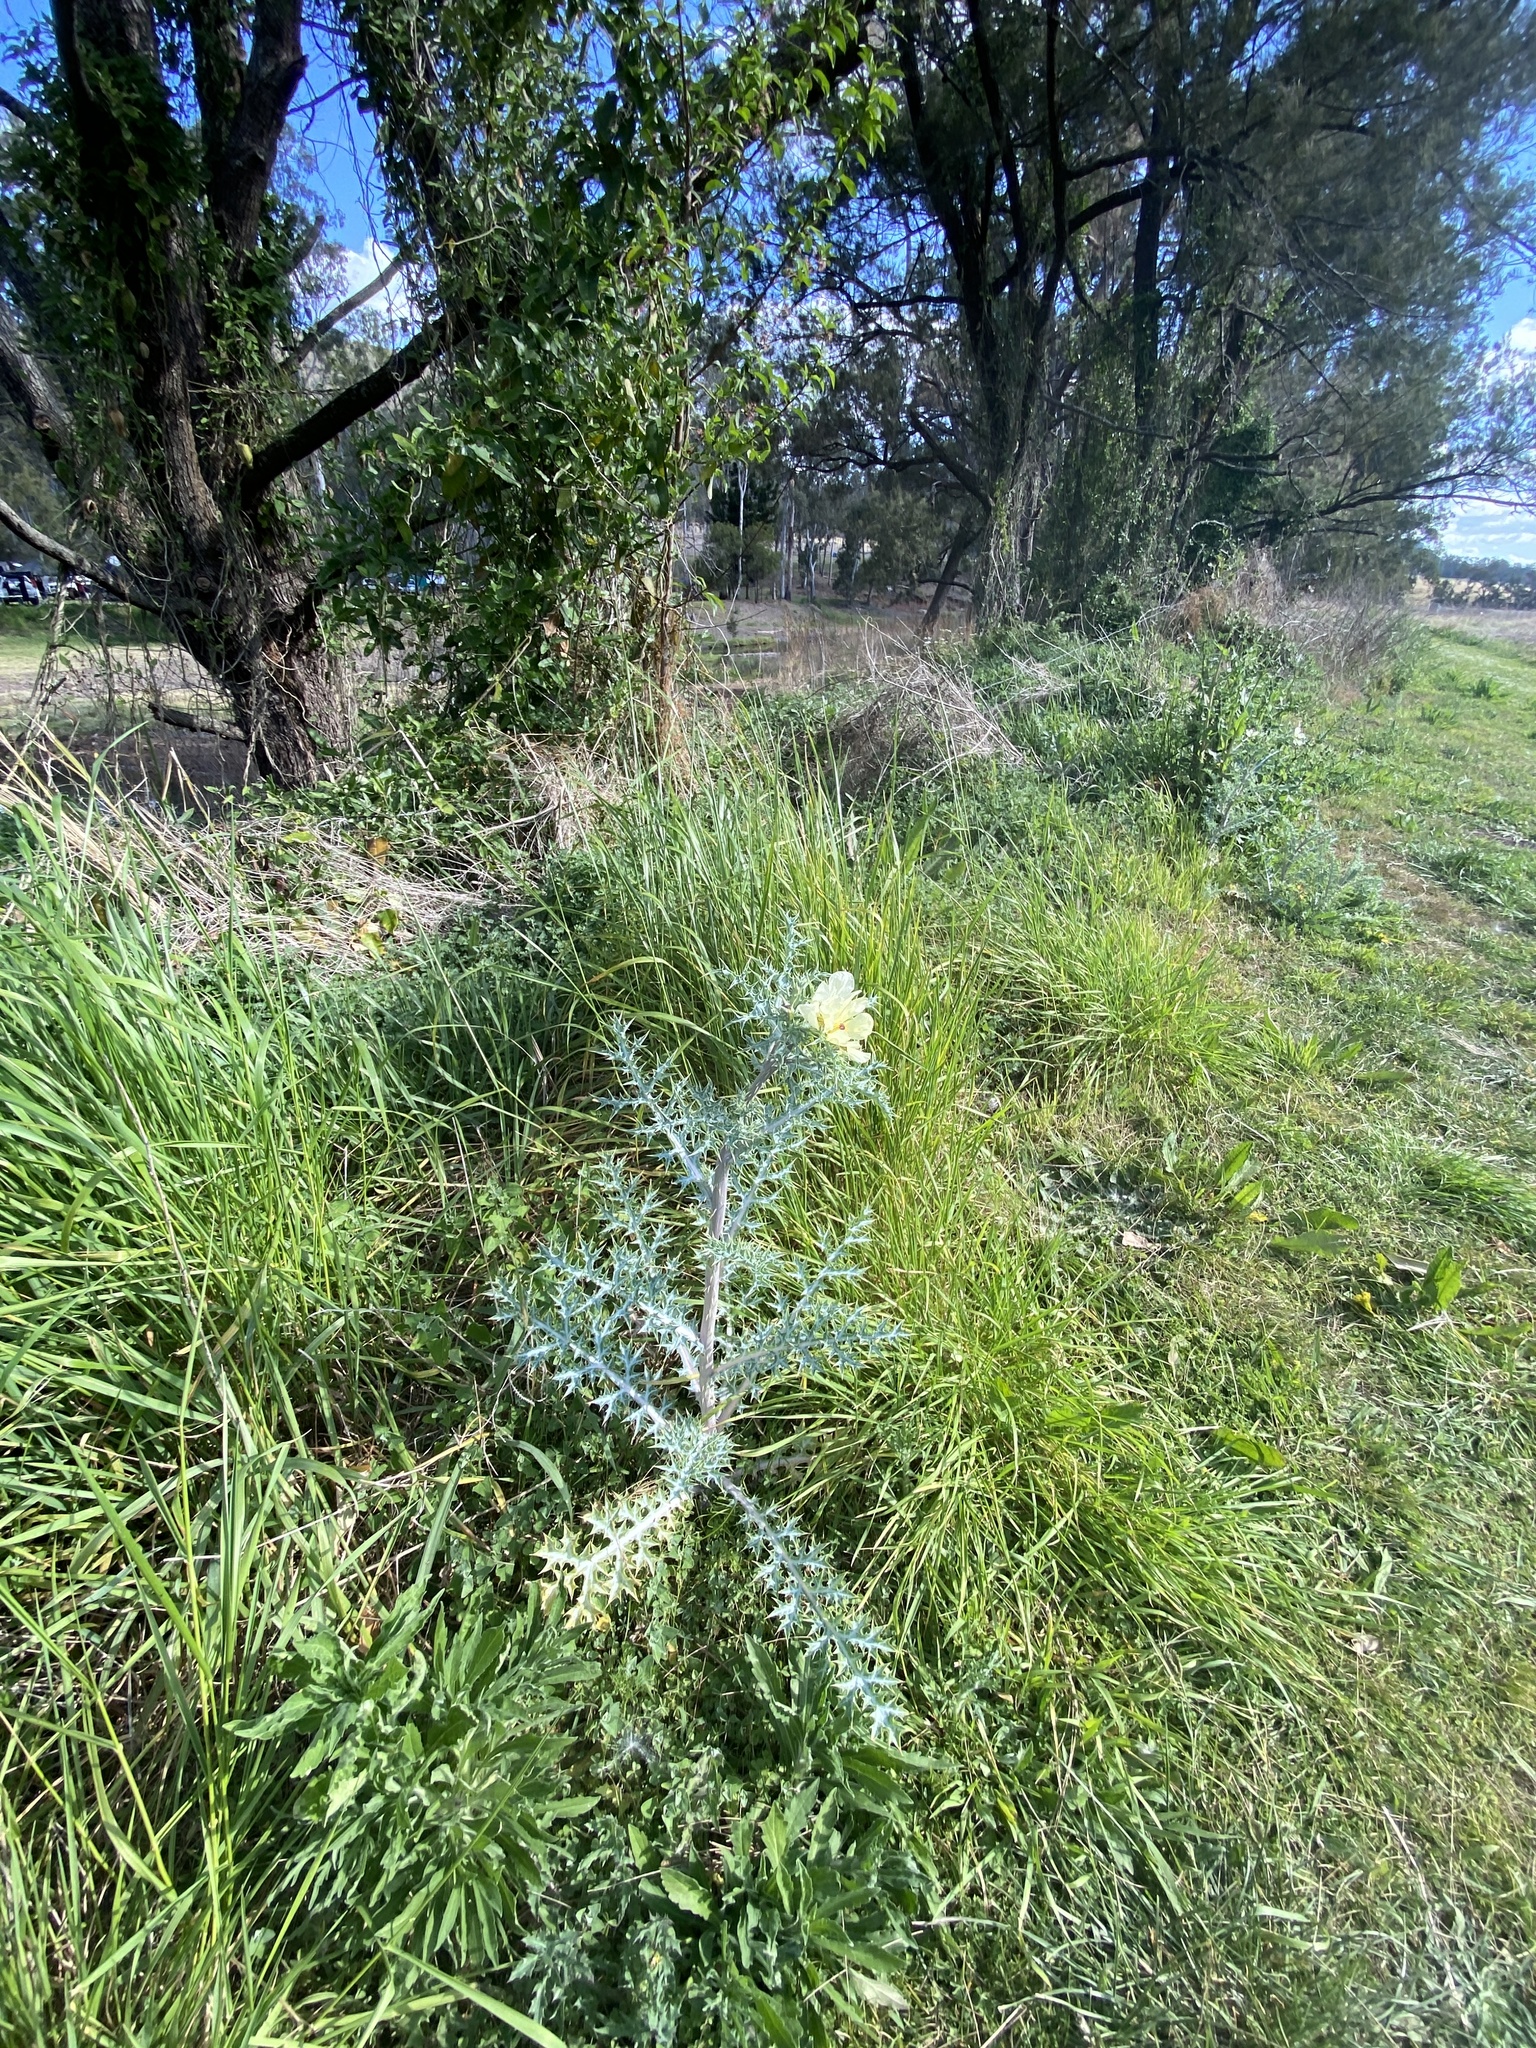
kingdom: Plantae
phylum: Tracheophyta
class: Magnoliopsida
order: Ranunculales
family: Papaveraceae
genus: Argemone
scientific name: Argemone ochroleuca
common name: White-flower mexican-poppy
